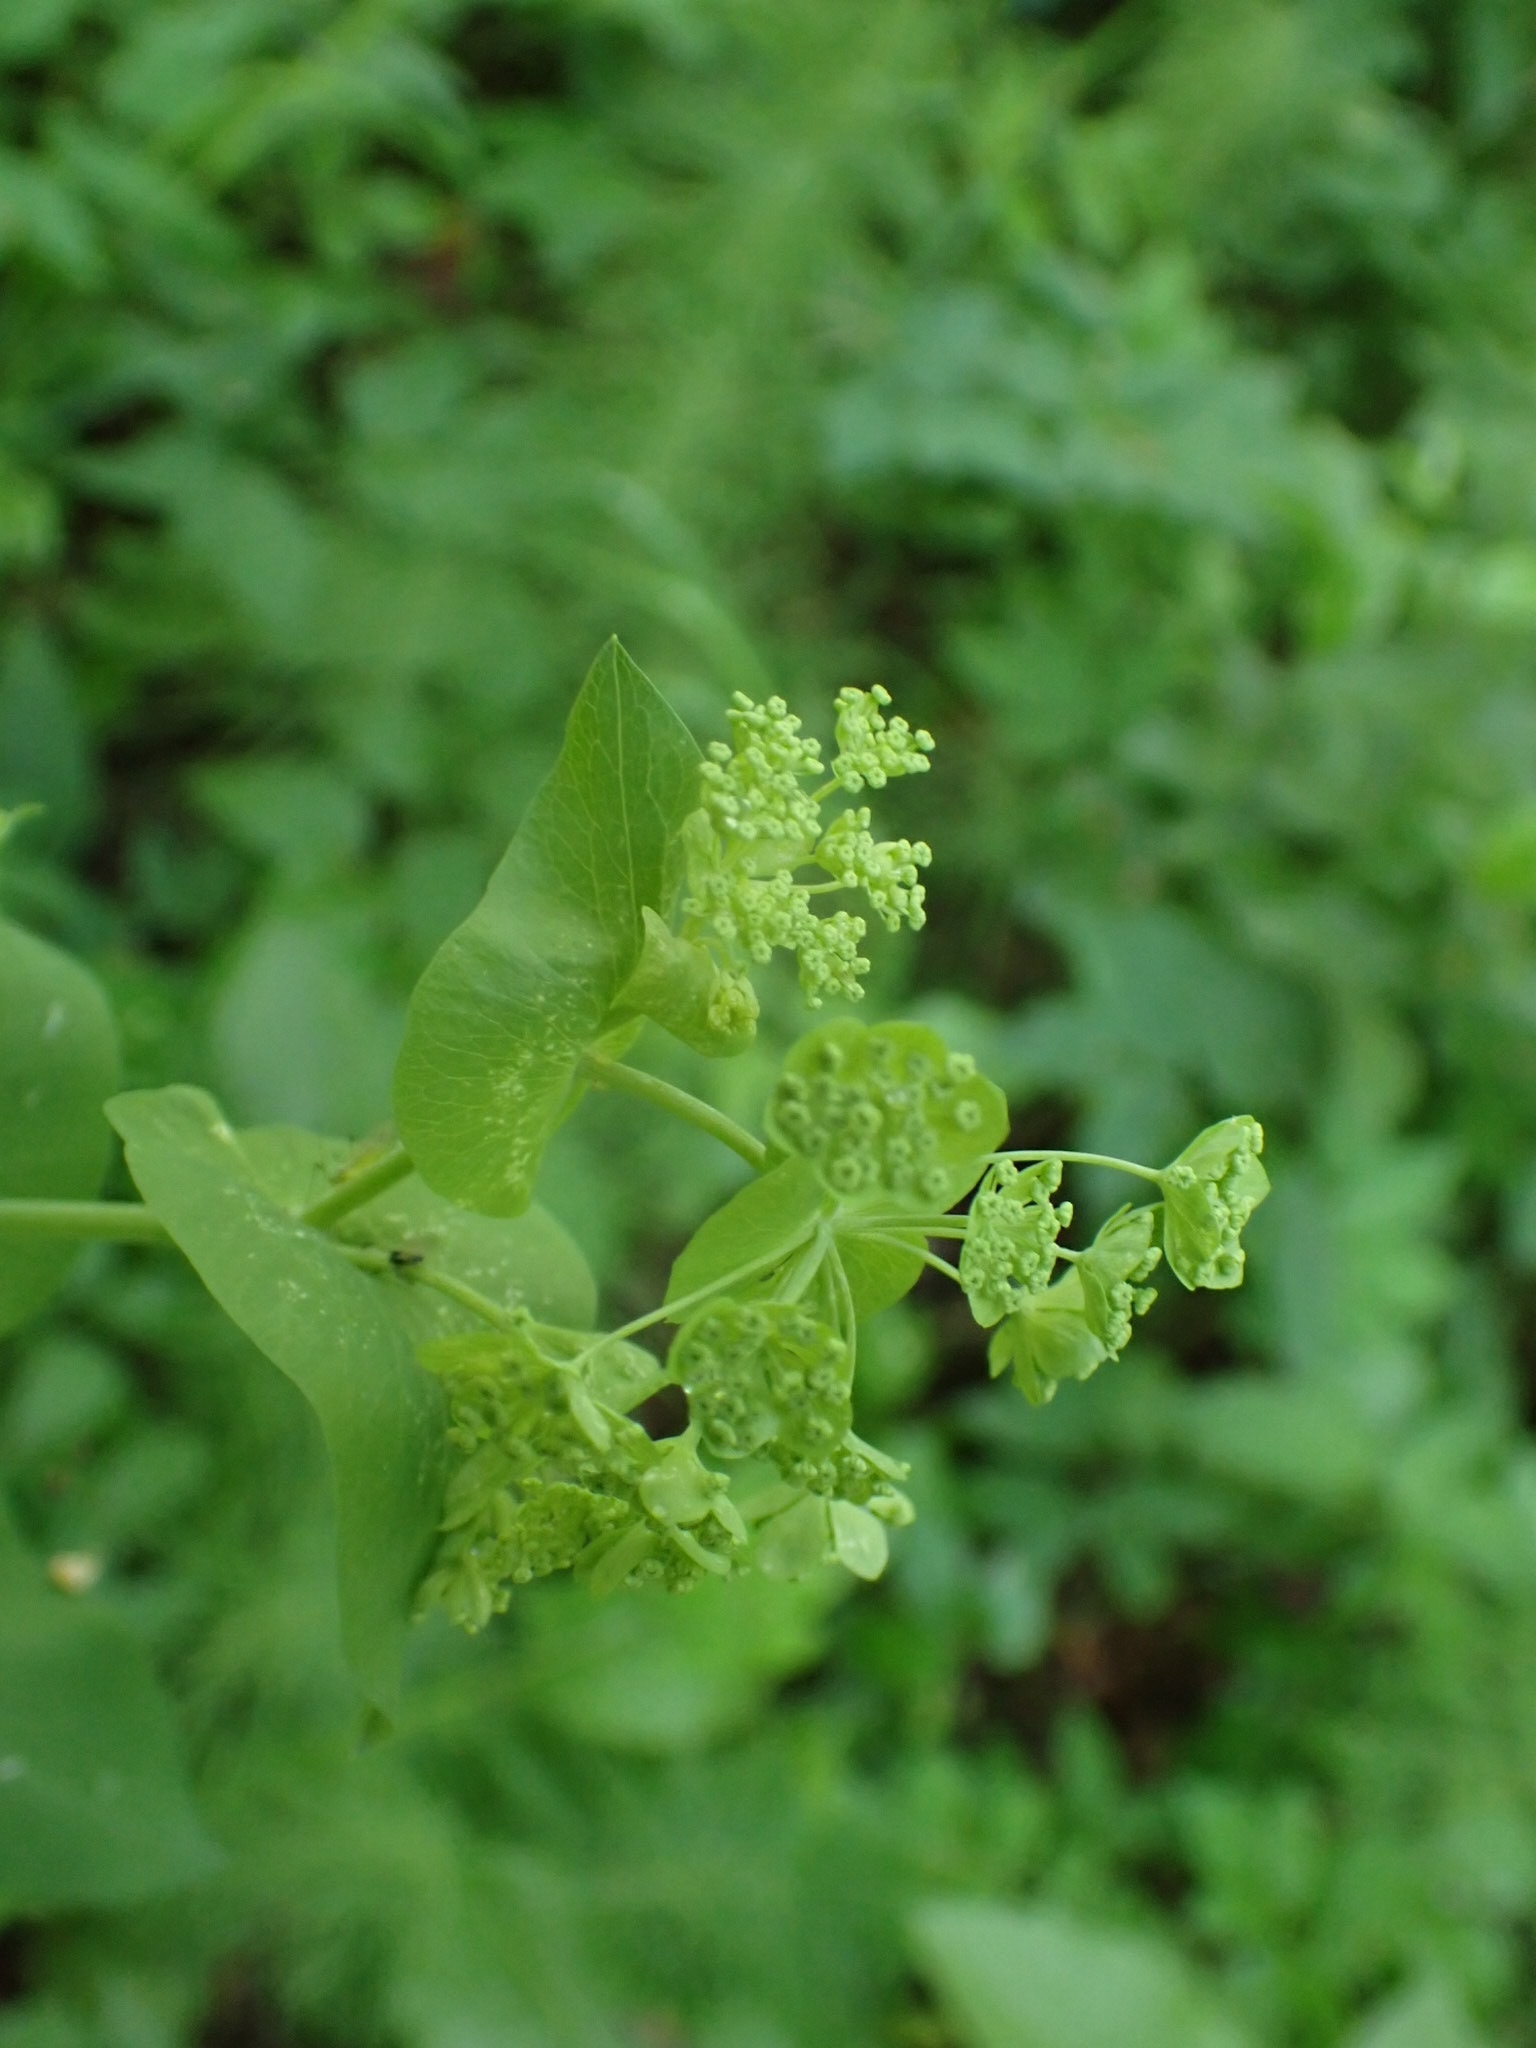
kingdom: Plantae
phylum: Tracheophyta
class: Magnoliopsida
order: Apiales
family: Apiaceae
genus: Bupleurum
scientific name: Bupleurum aureum
